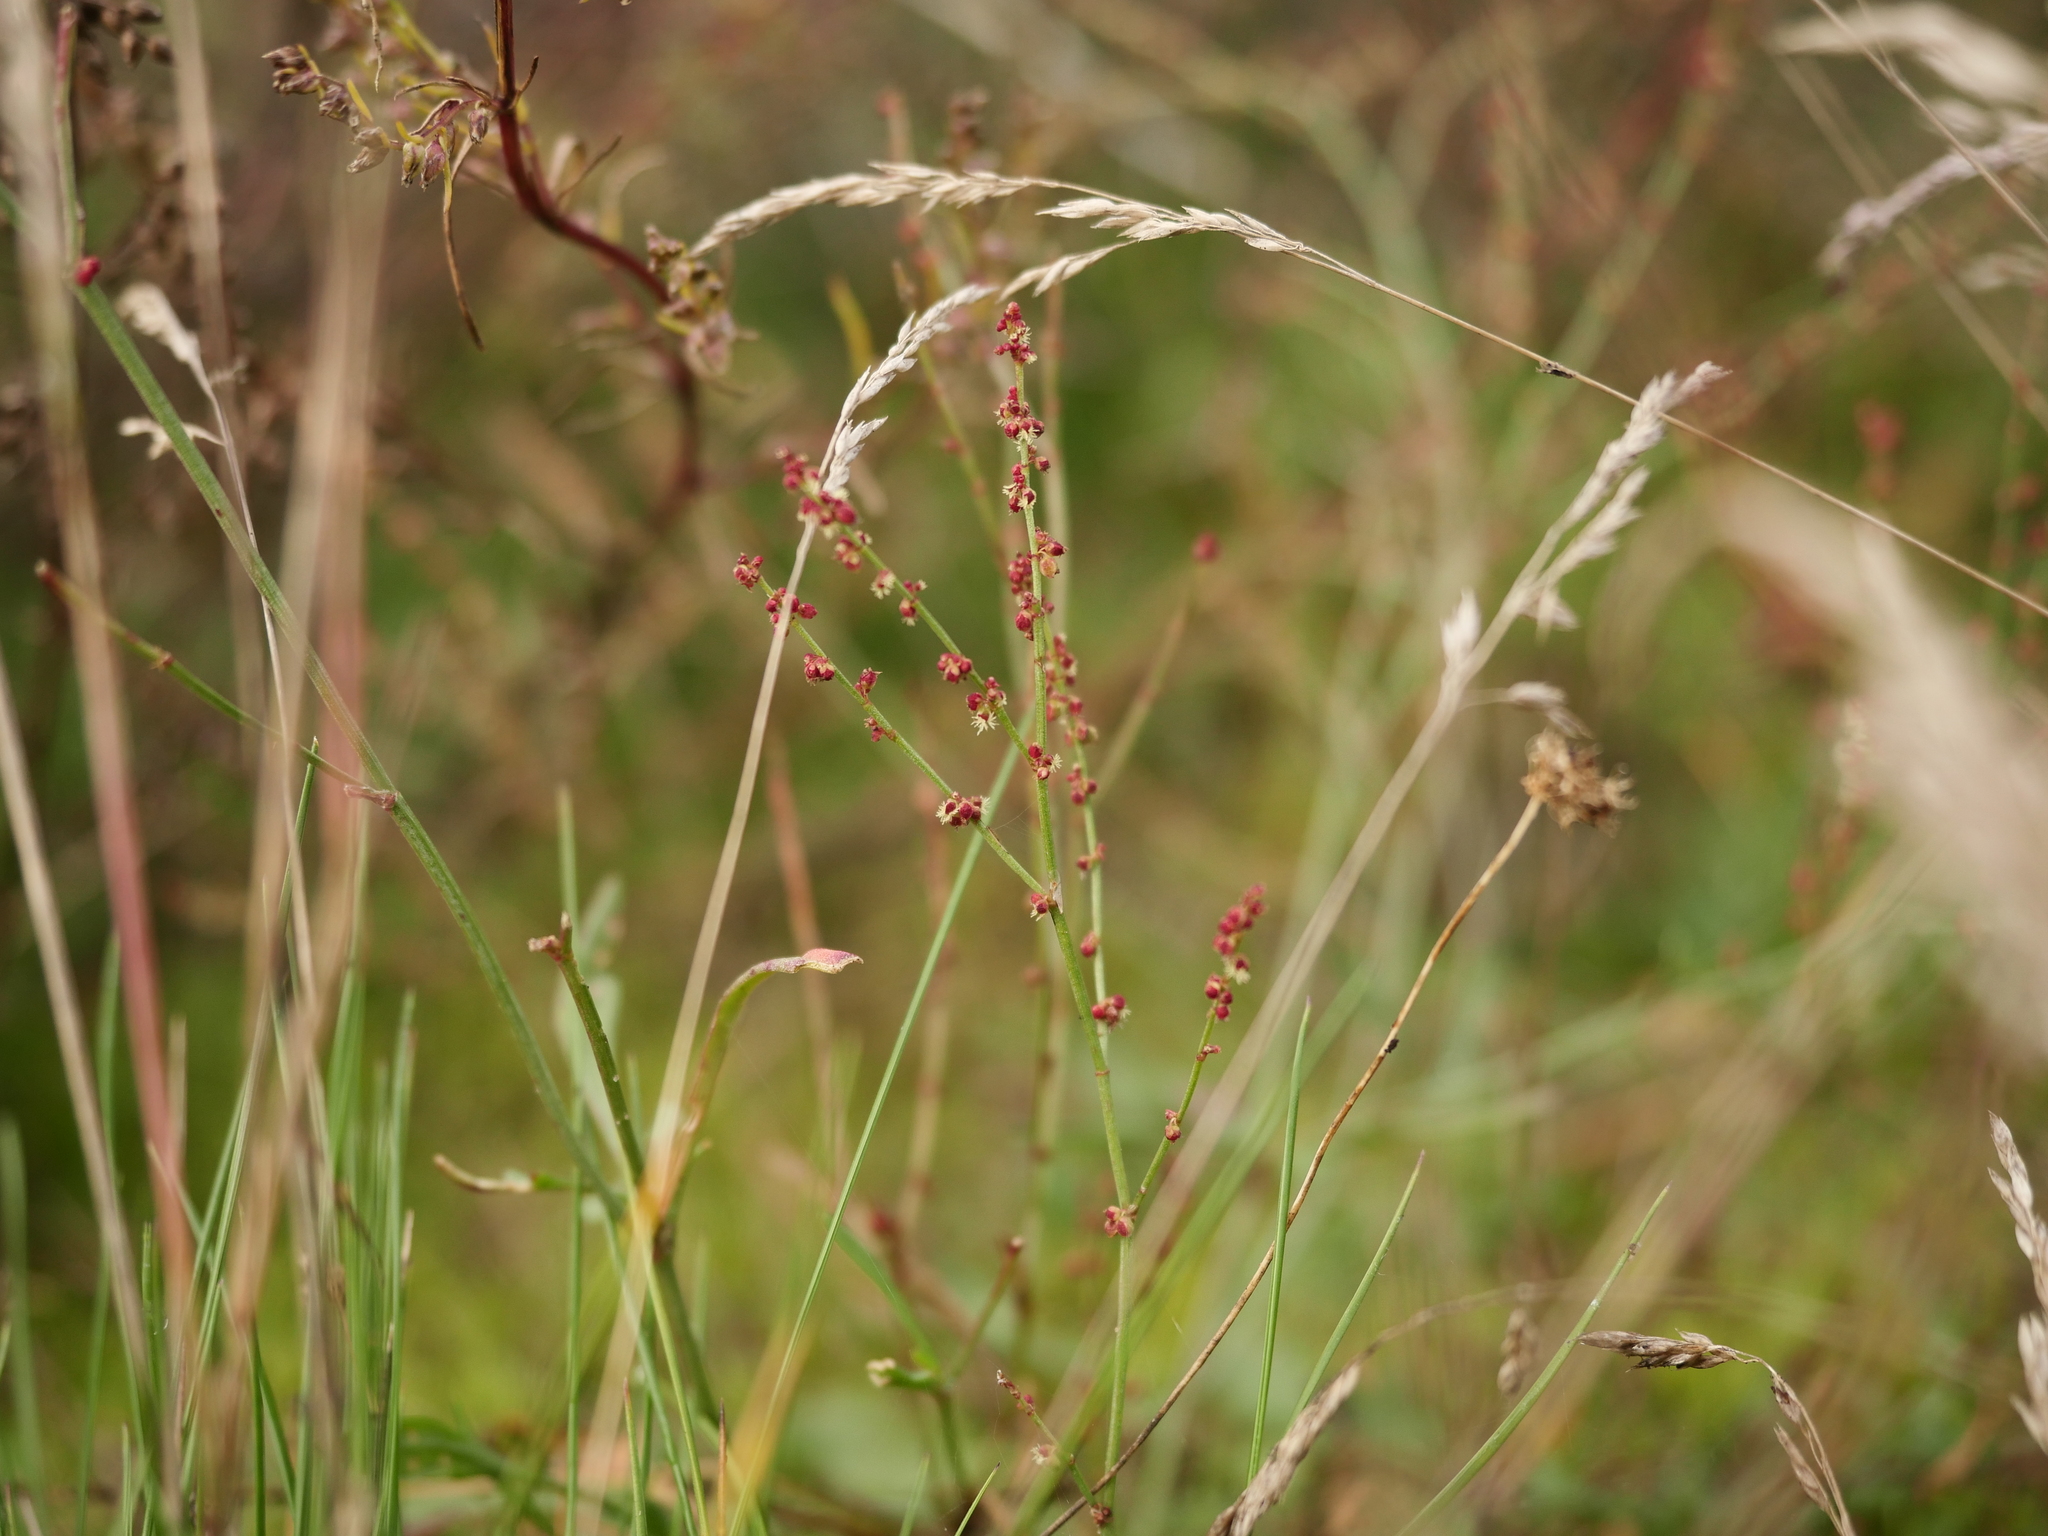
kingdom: Plantae
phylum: Tracheophyta
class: Magnoliopsida
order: Caryophyllales
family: Polygonaceae
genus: Rumex
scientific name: Rumex acetosella
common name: Common sheep sorrel
